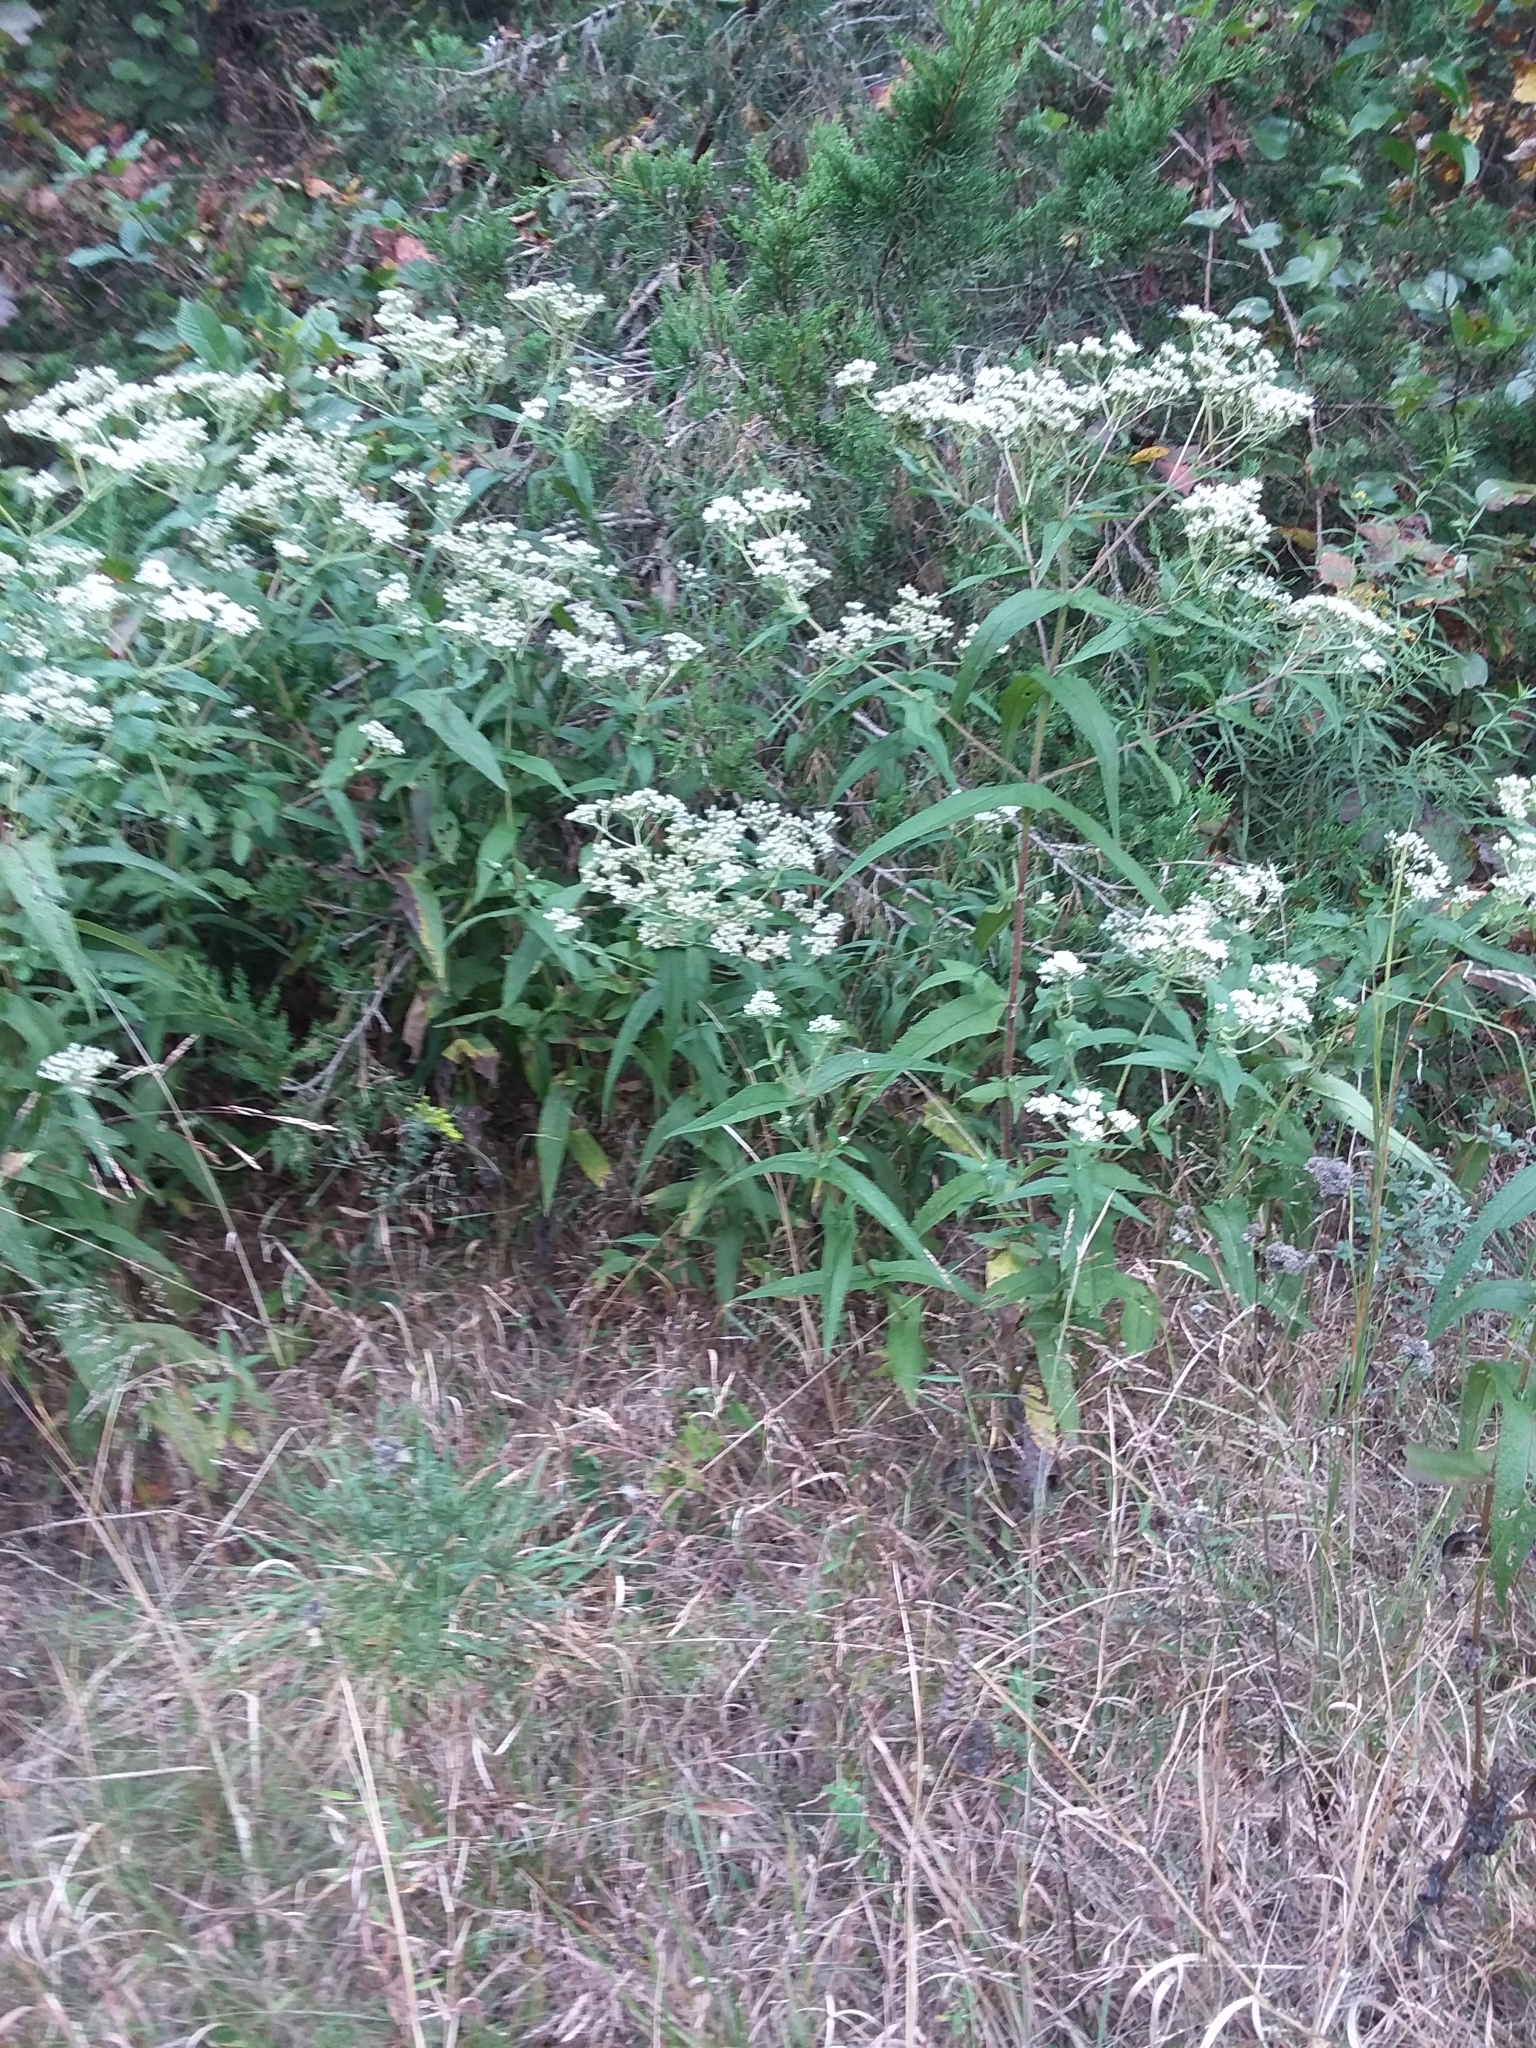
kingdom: Plantae
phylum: Tracheophyta
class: Magnoliopsida
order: Asterales
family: Asteraceae
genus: Eupatorium
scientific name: Eupatorium perfoliatum
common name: Boneset
